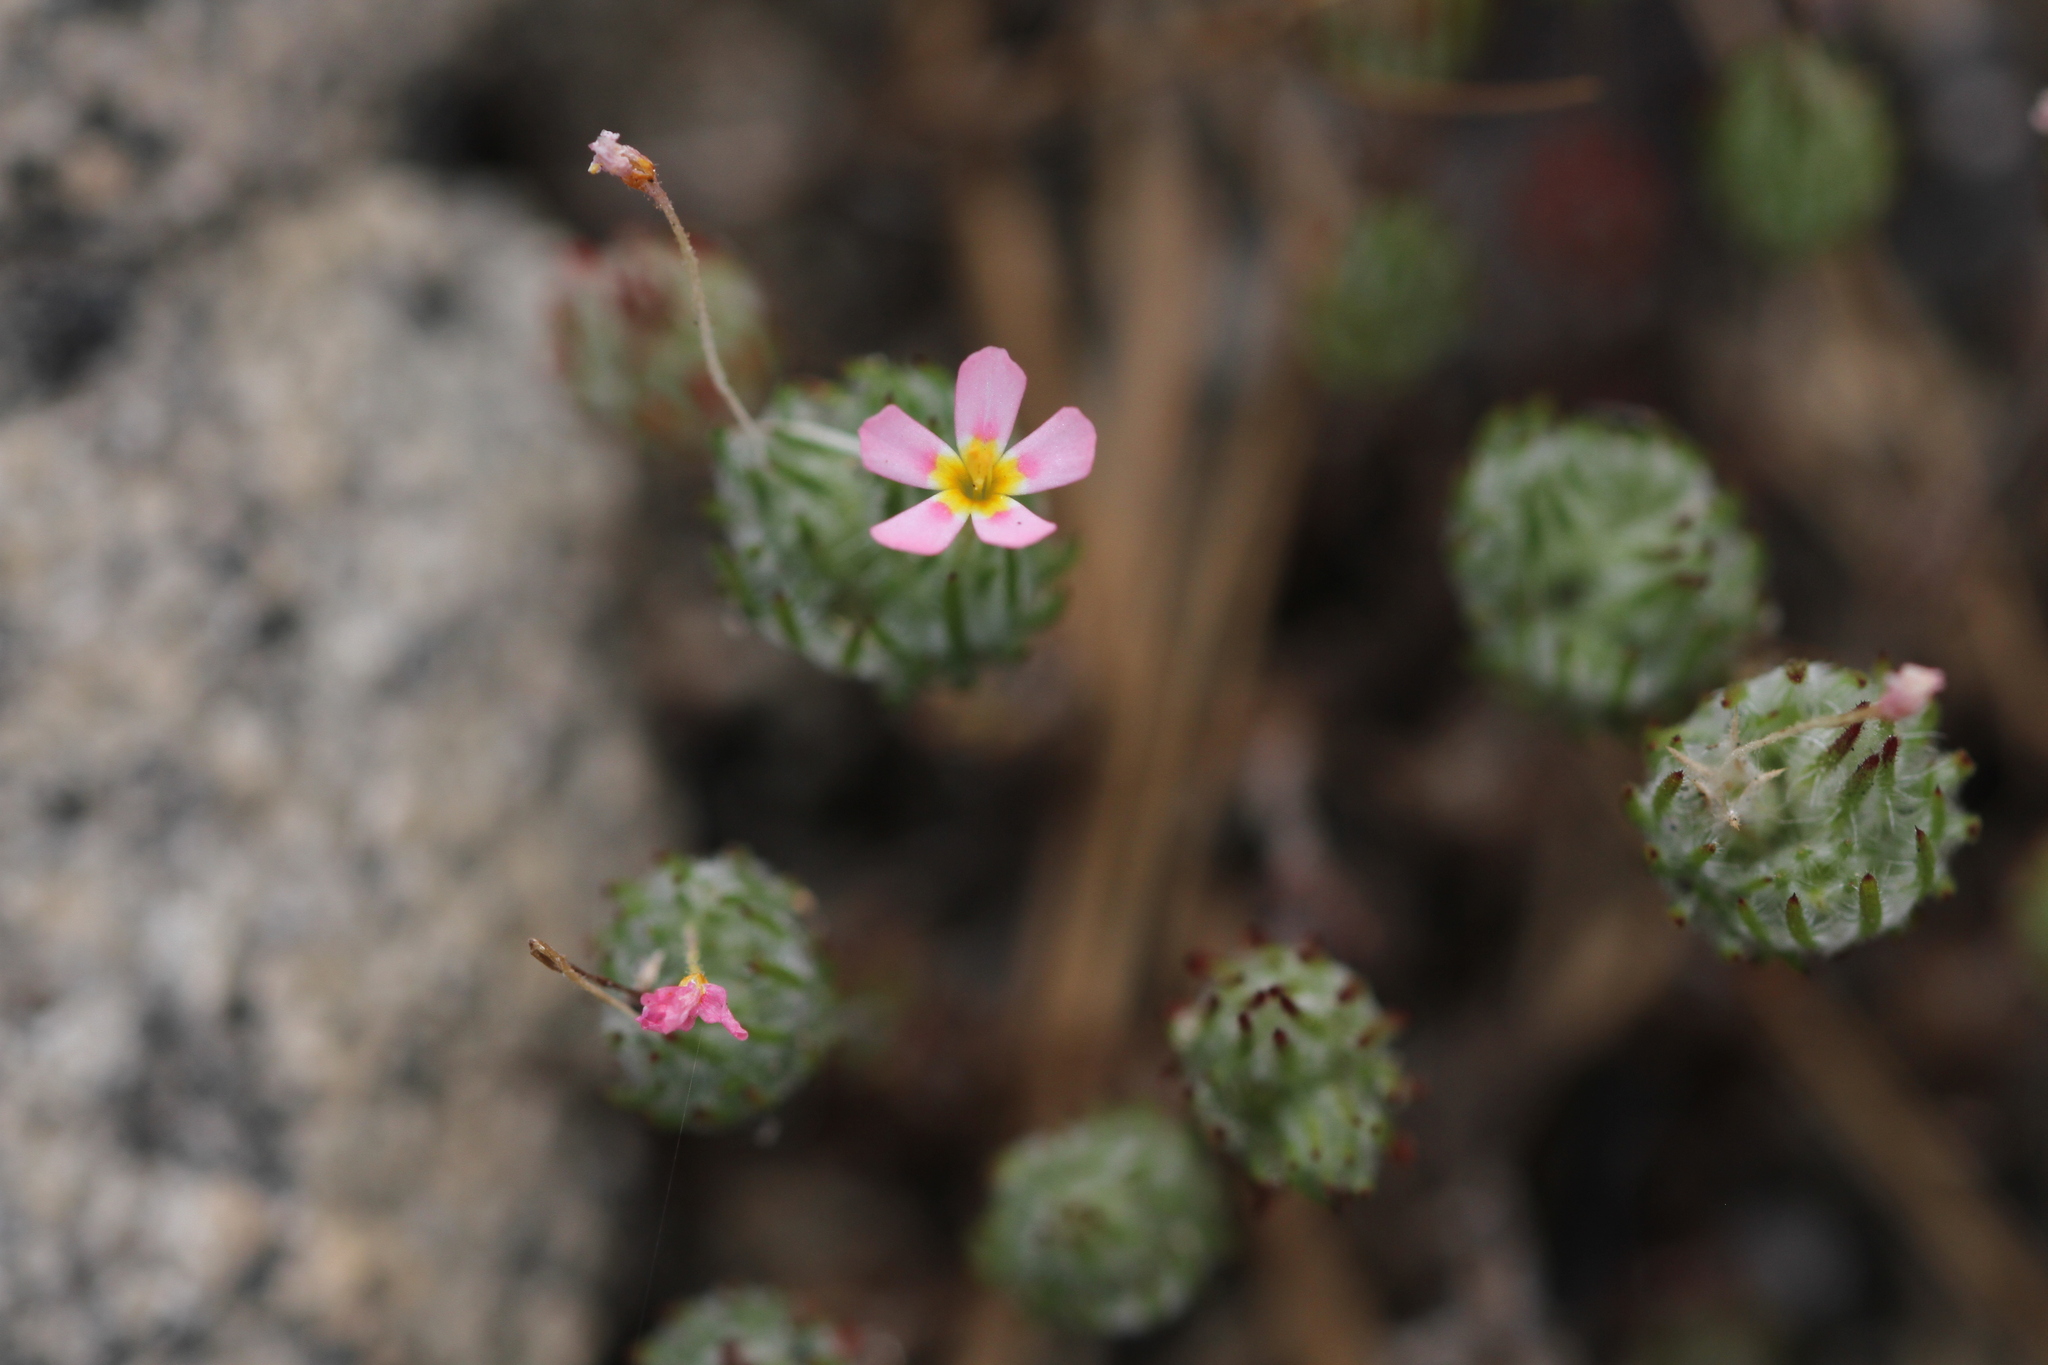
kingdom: Plantae
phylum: Tracheophyta
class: Magnoliopsida
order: Ericales
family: Polemoniaceae
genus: Leptosiphon
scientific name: Leptosiphon ciliatus
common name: Whiskerbrush
